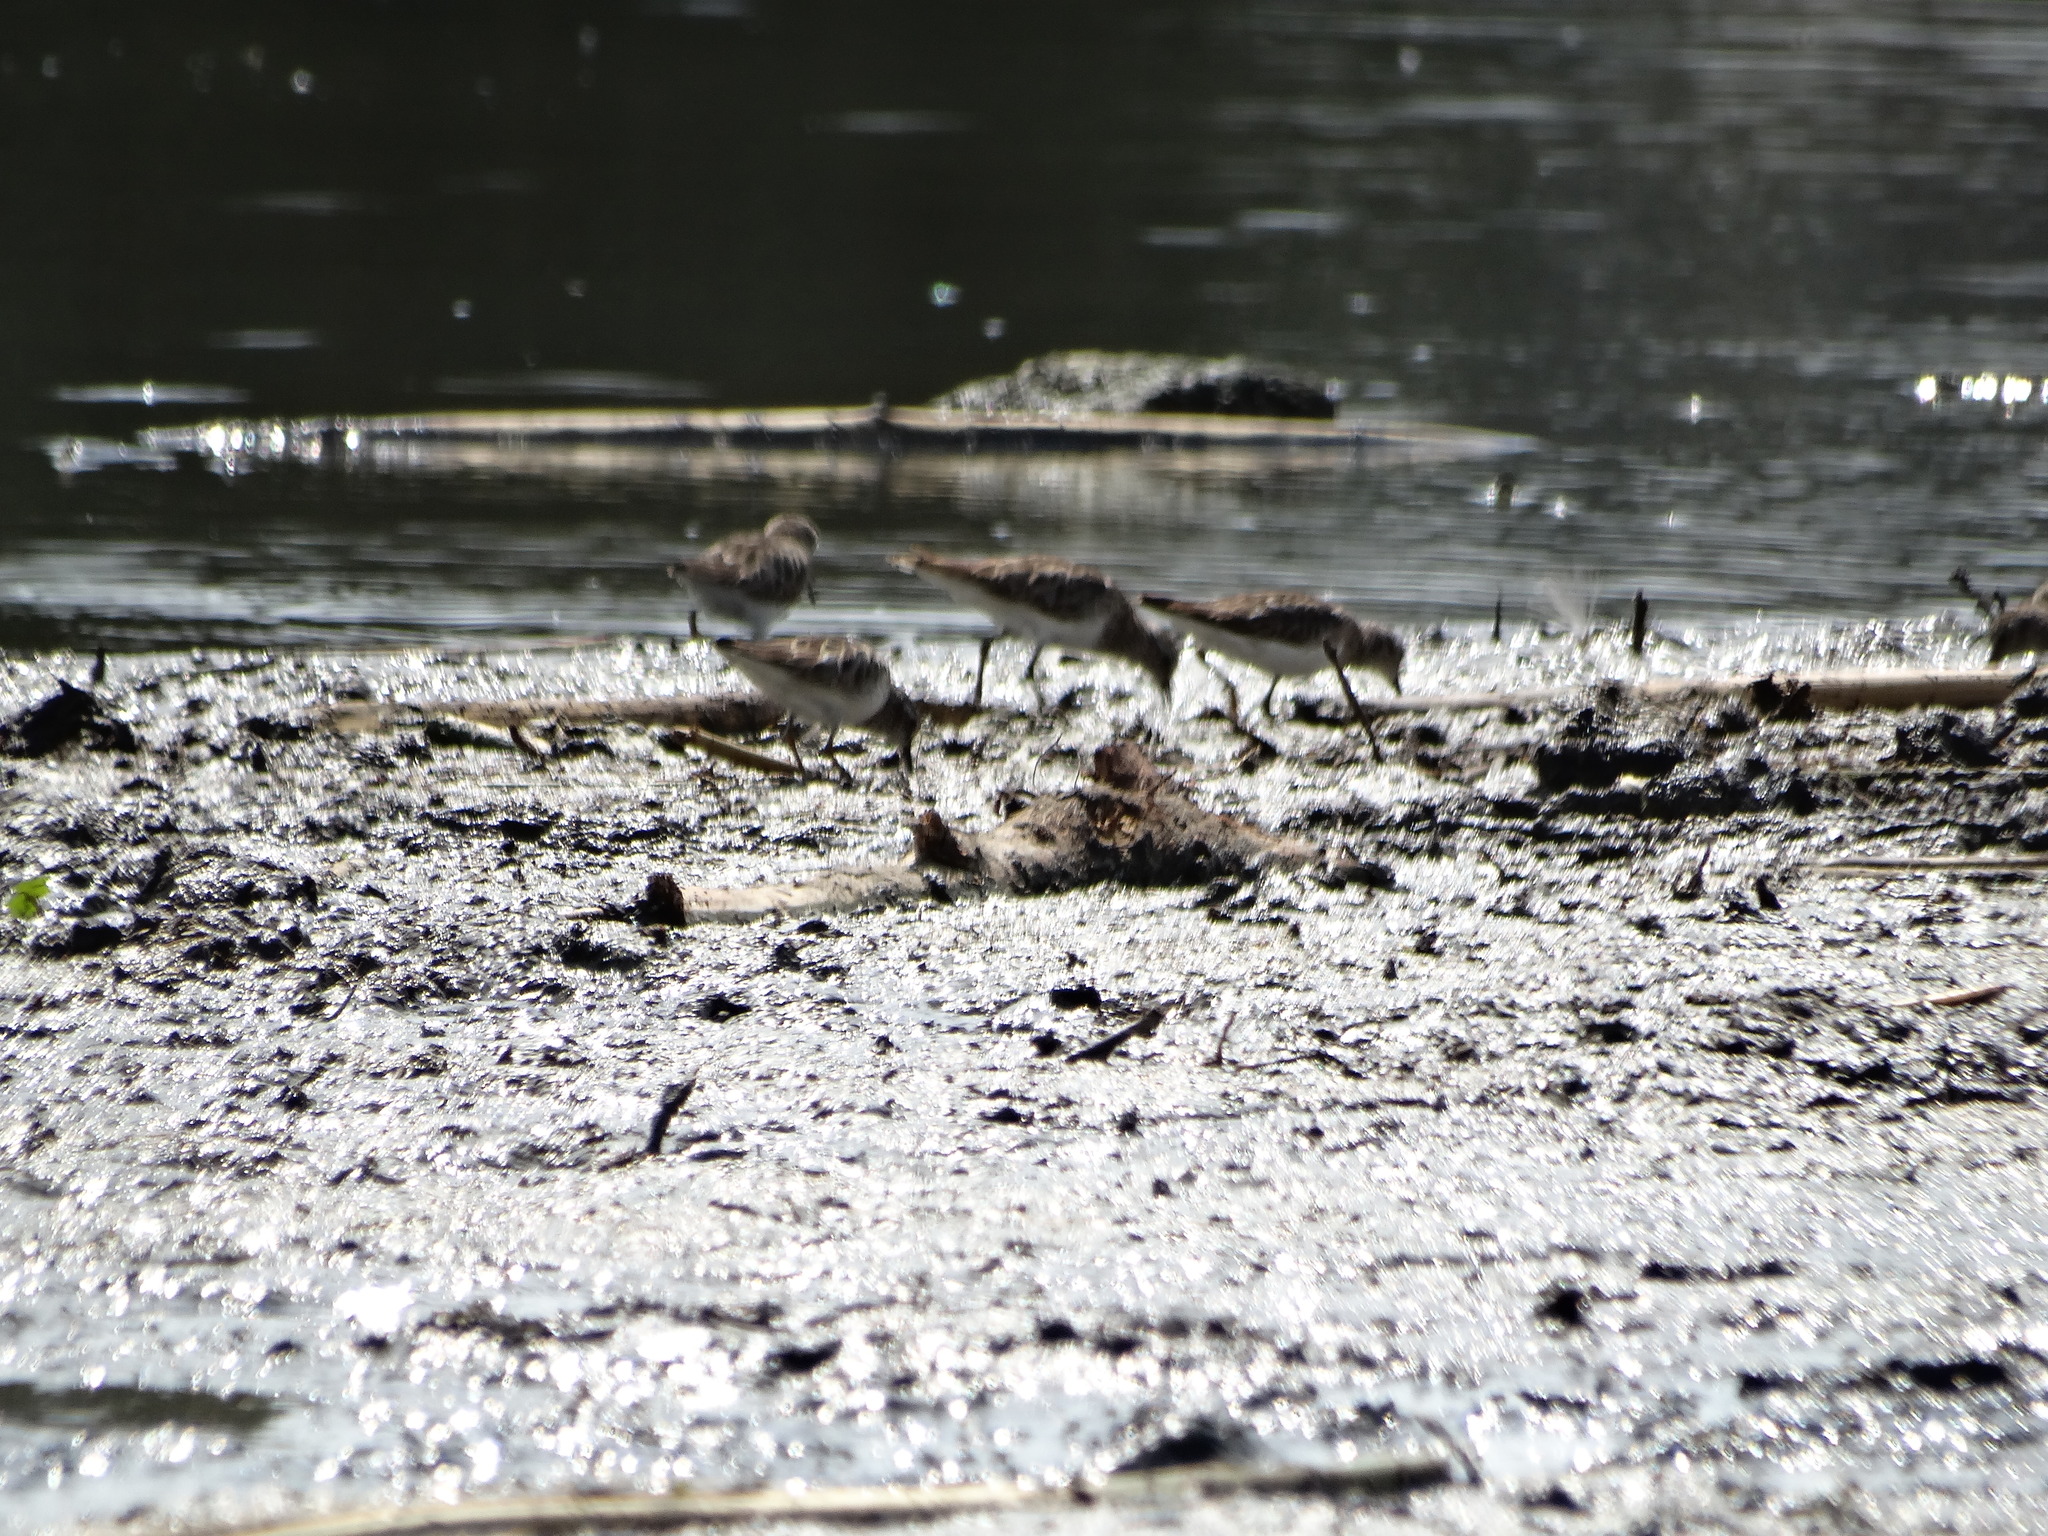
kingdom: Animalia
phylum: Chordata
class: Aves
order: Charadriiformes
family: Scolopacidae
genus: Calidris
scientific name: Calidris minutilla
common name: Least sandpiper
